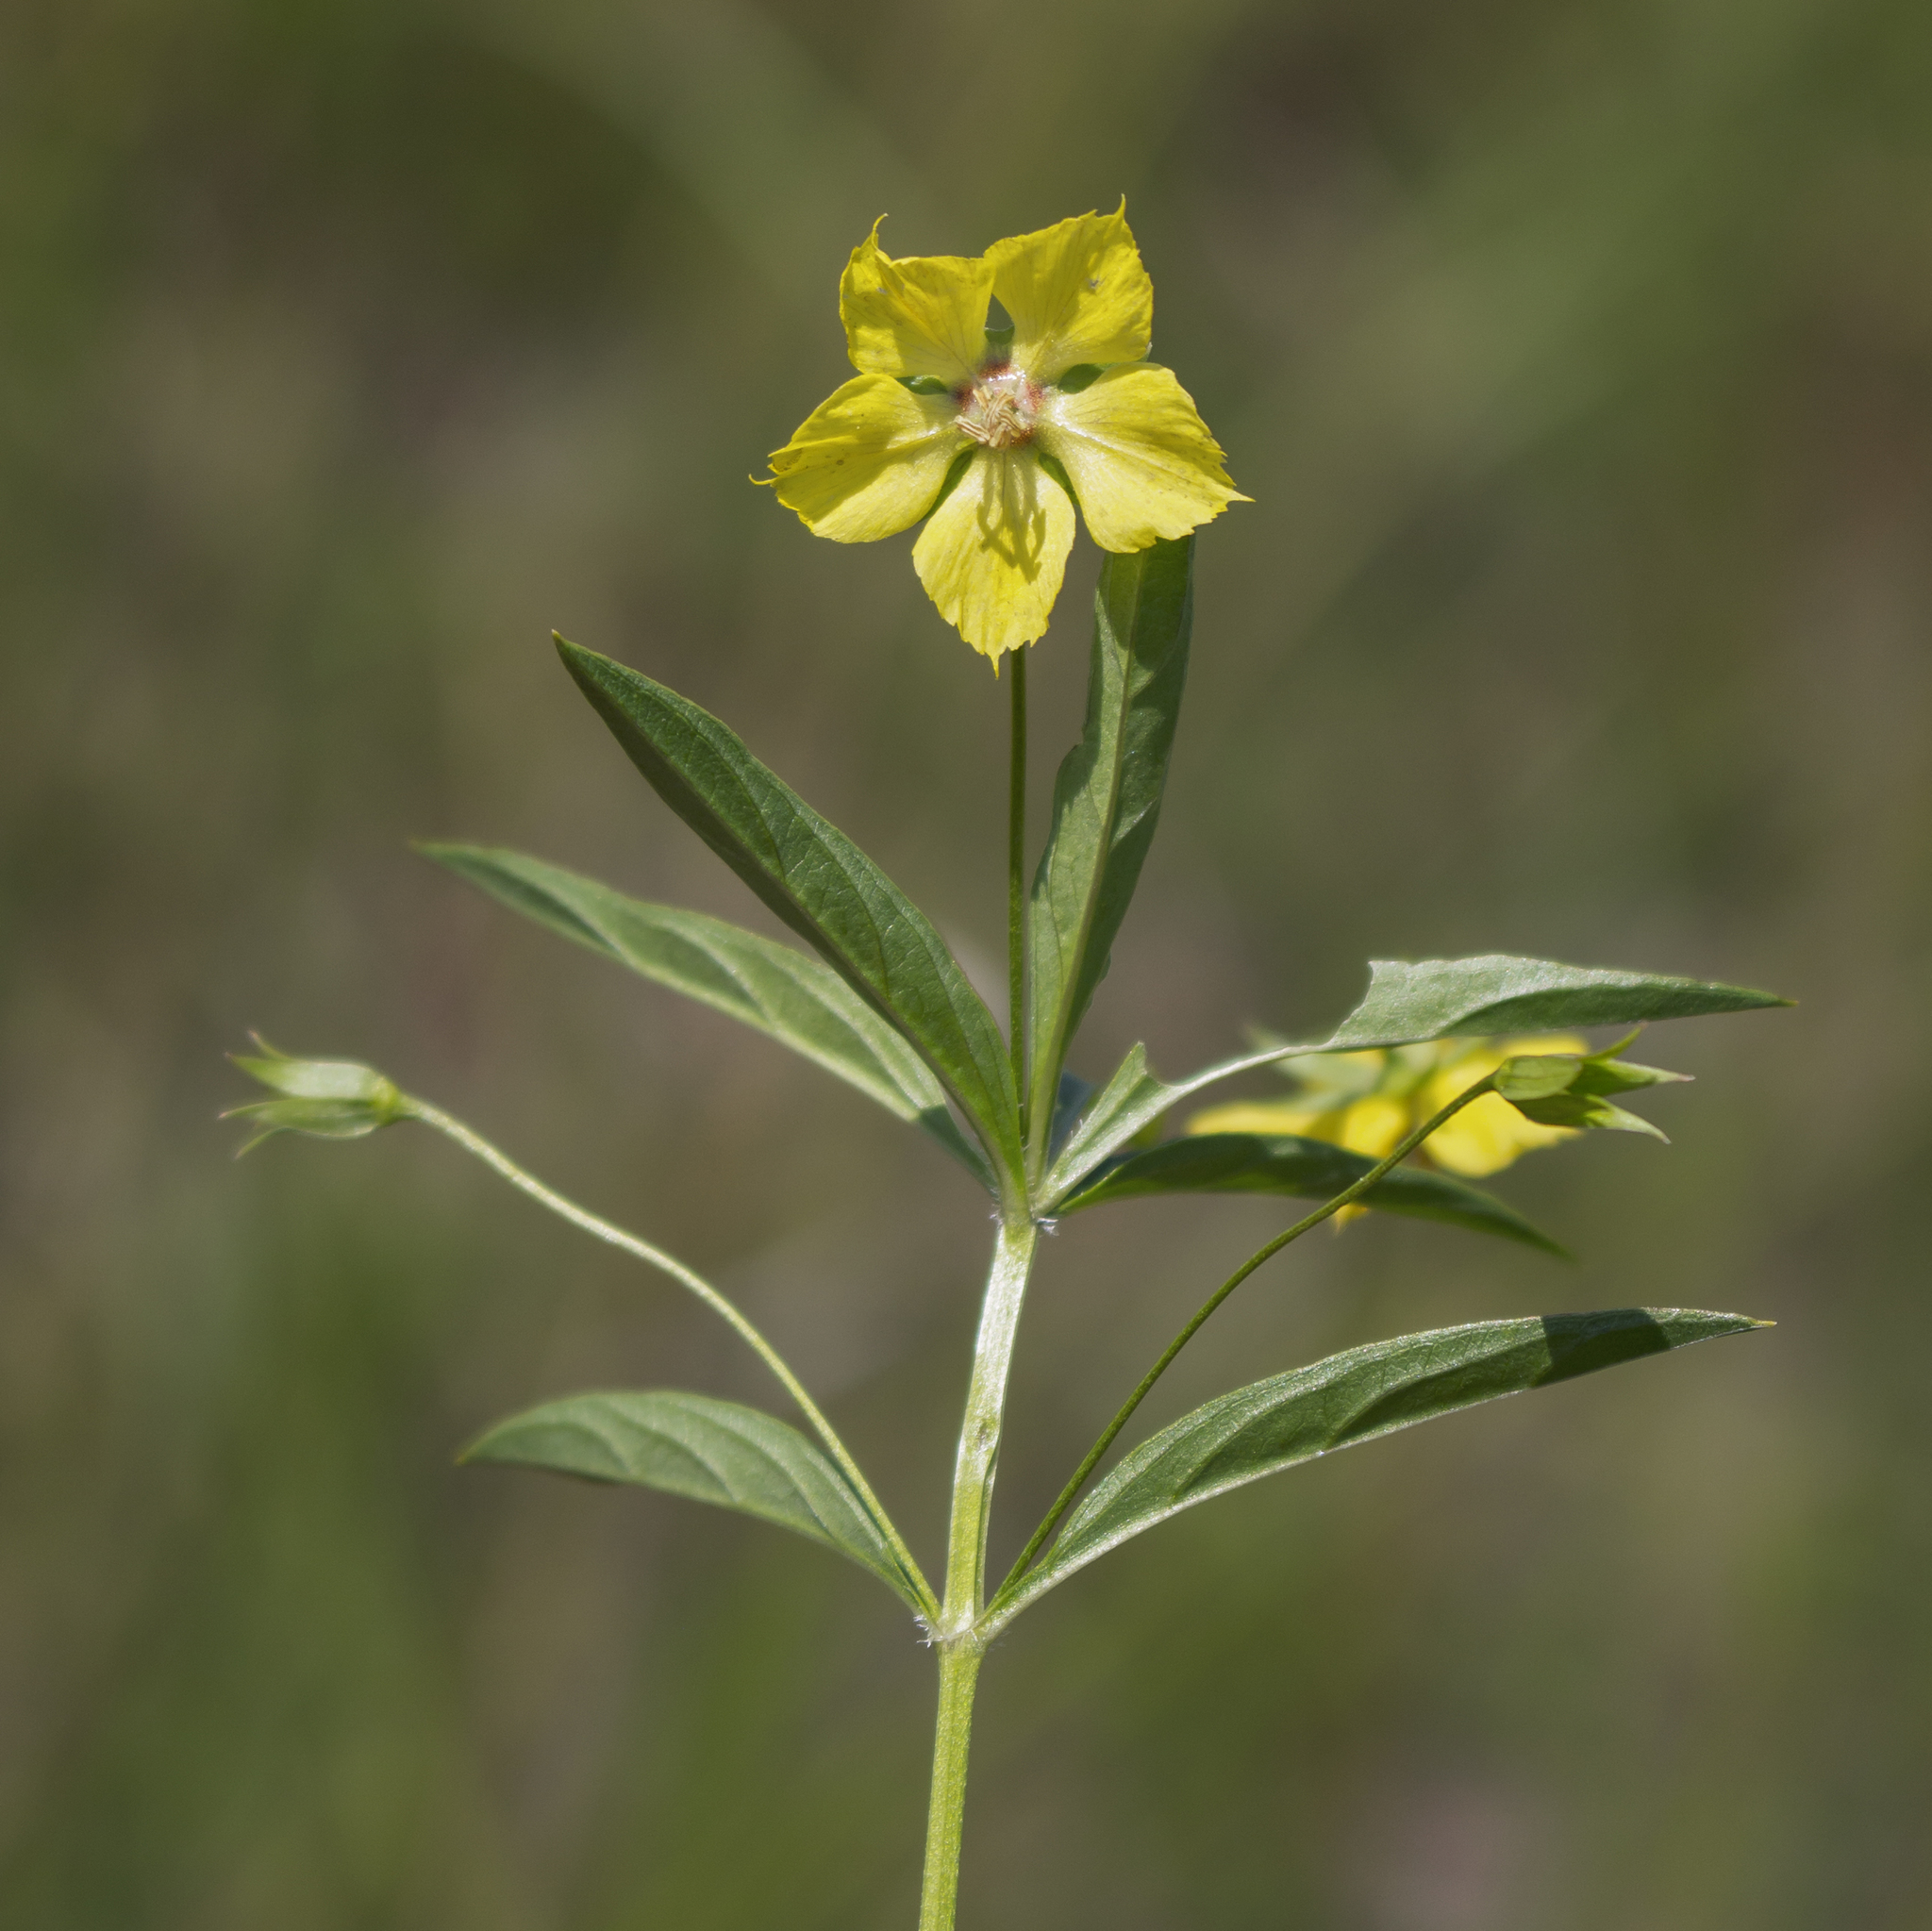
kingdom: Plantae
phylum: Tracheophyta
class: Magnoliopsida
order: Ericales
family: Primulaceae
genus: Lysimachia
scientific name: Lysimachia hybrida
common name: Lowland loosestrife
